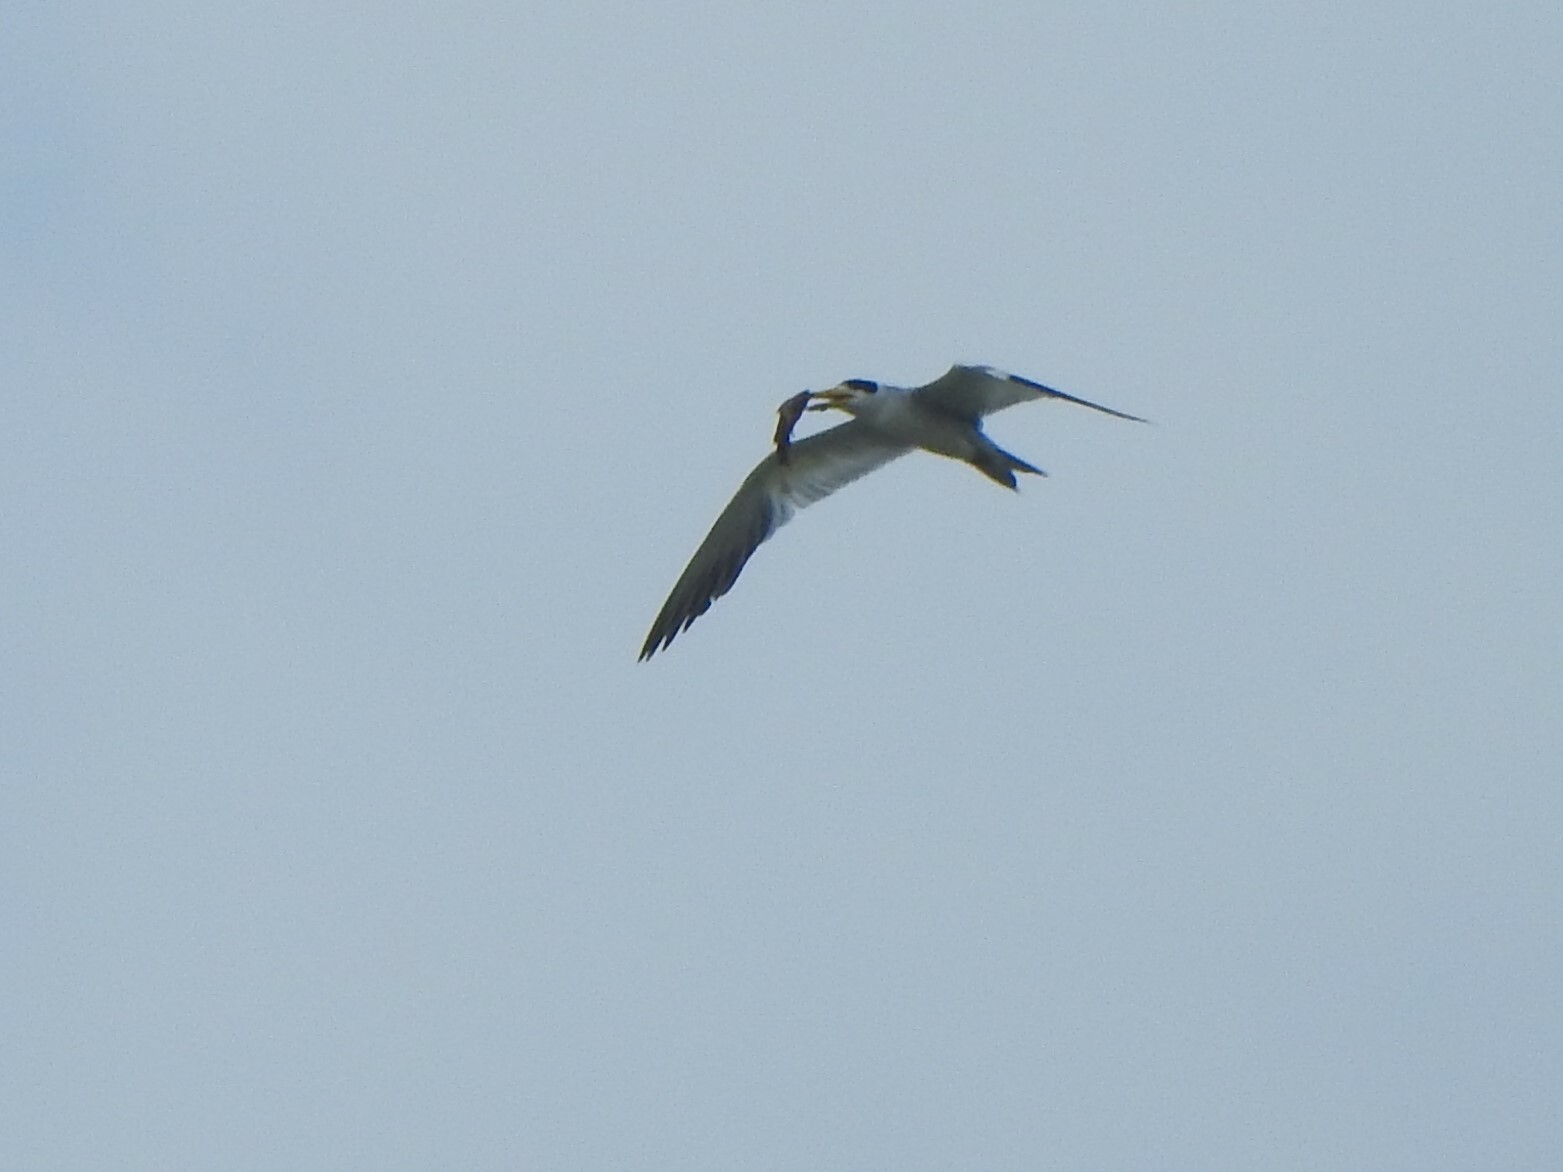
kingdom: Animalia
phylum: Chordata
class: Aves
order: Charadriiformes
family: Laridae
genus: Phaetusa
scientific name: Phaetusa simplex
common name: Large-billed tern
